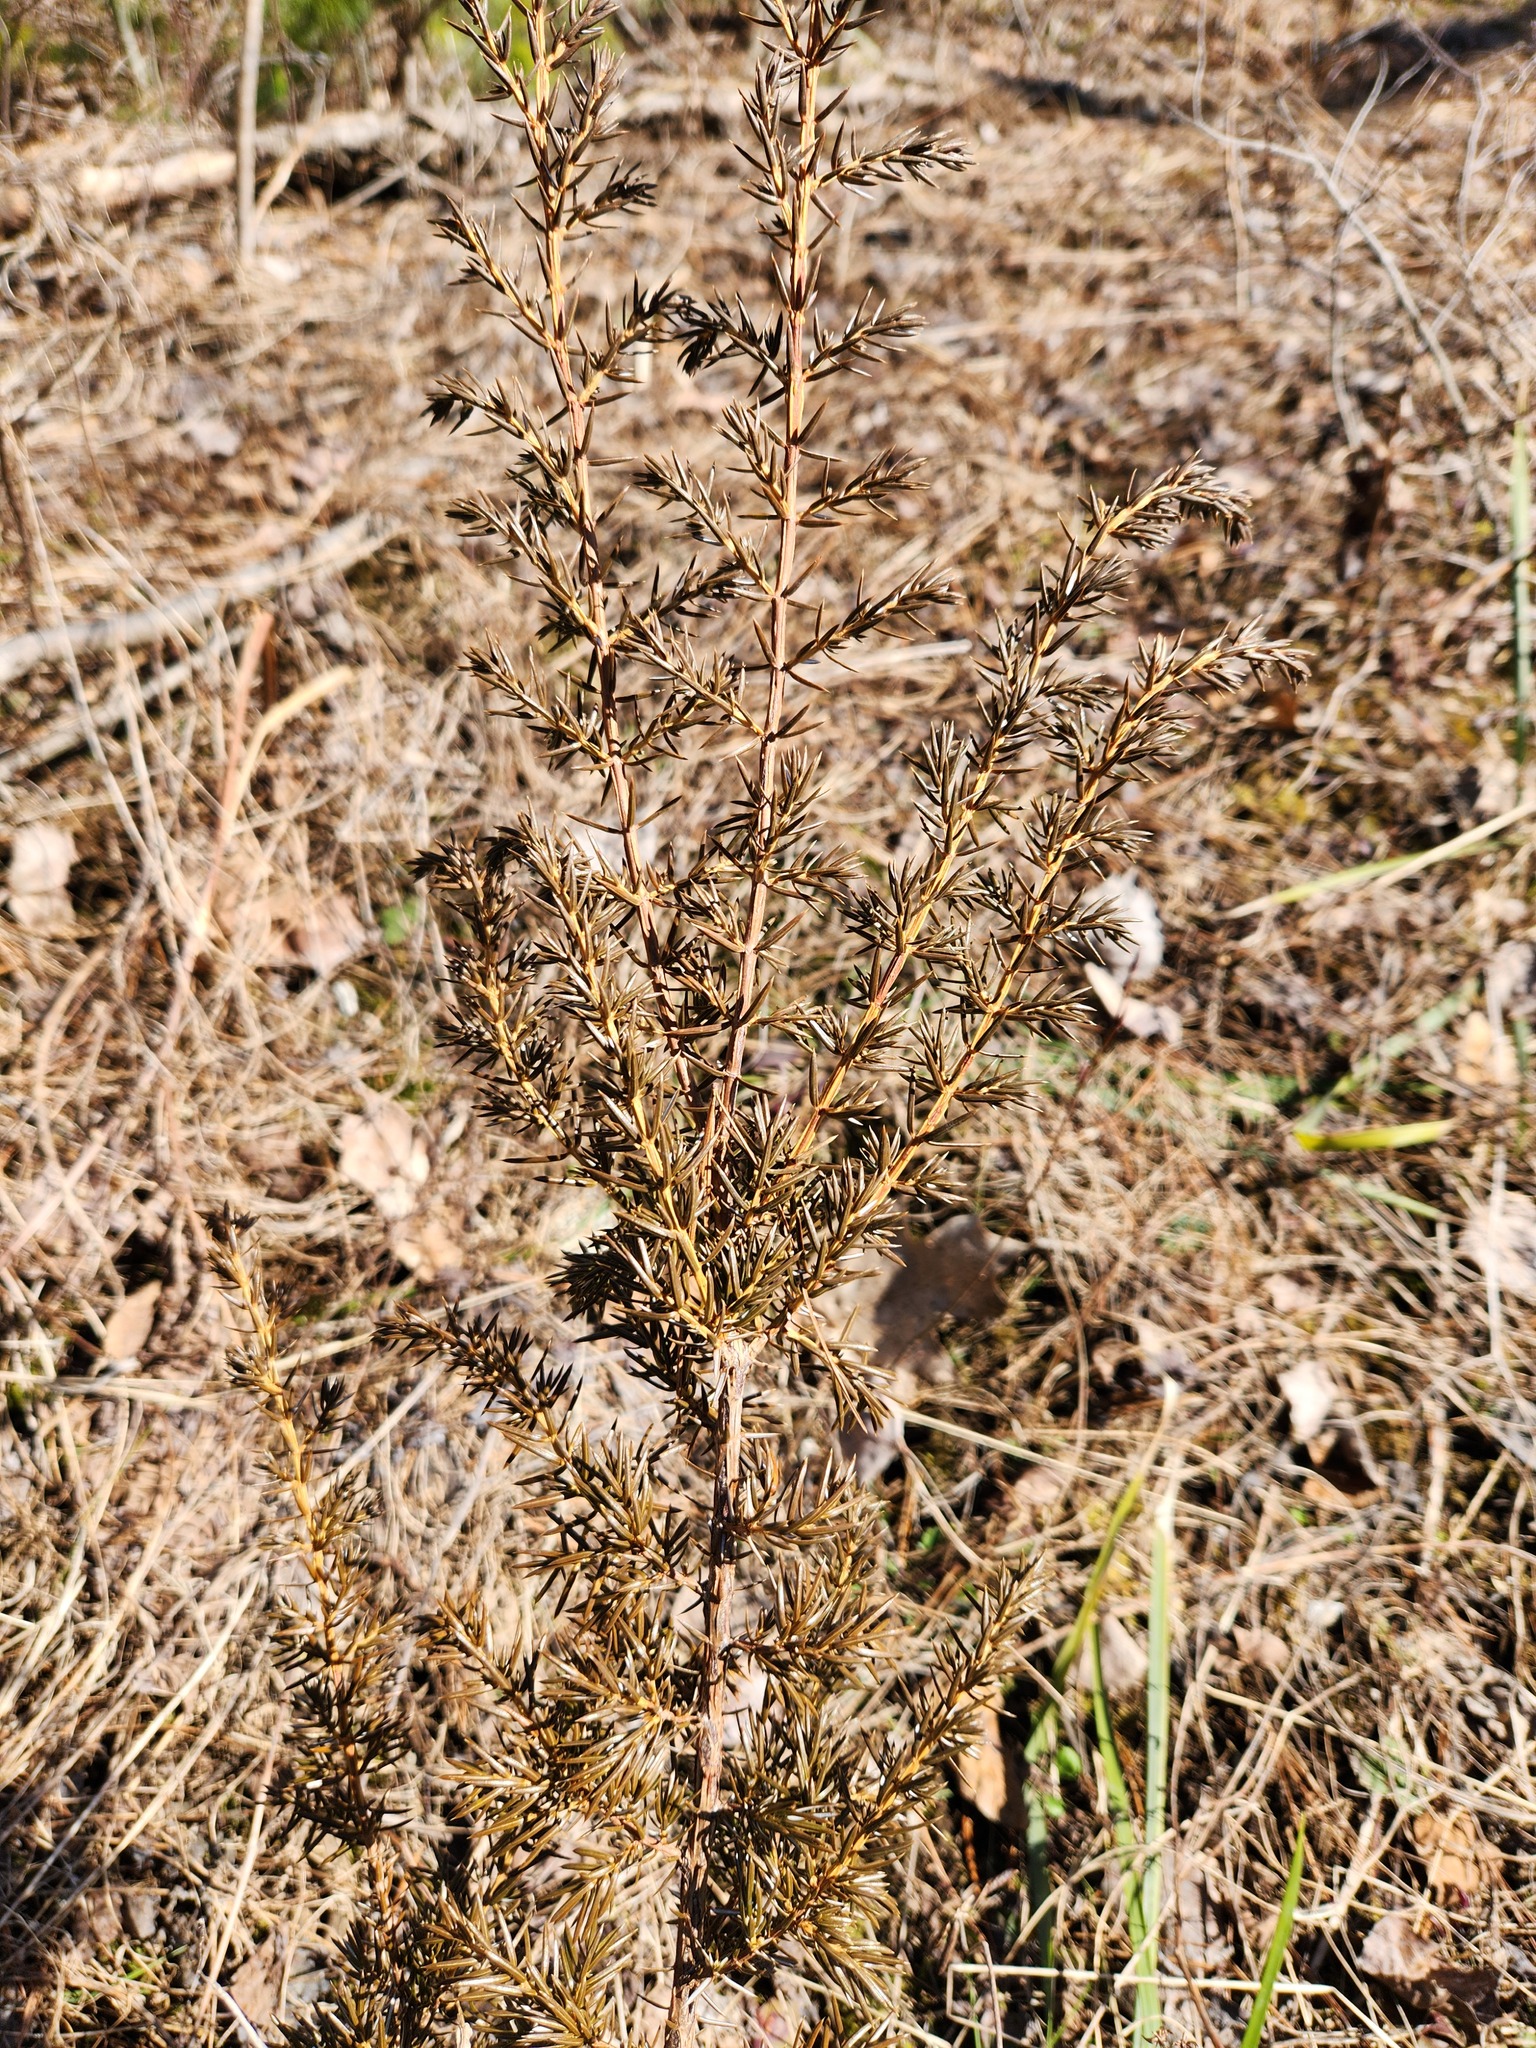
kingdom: Plantae
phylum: Tracheophyta
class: Pinopsida
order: Pinales
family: Cupressaceae
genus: Juniperus
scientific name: Juniperus communis
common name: Common juniper
